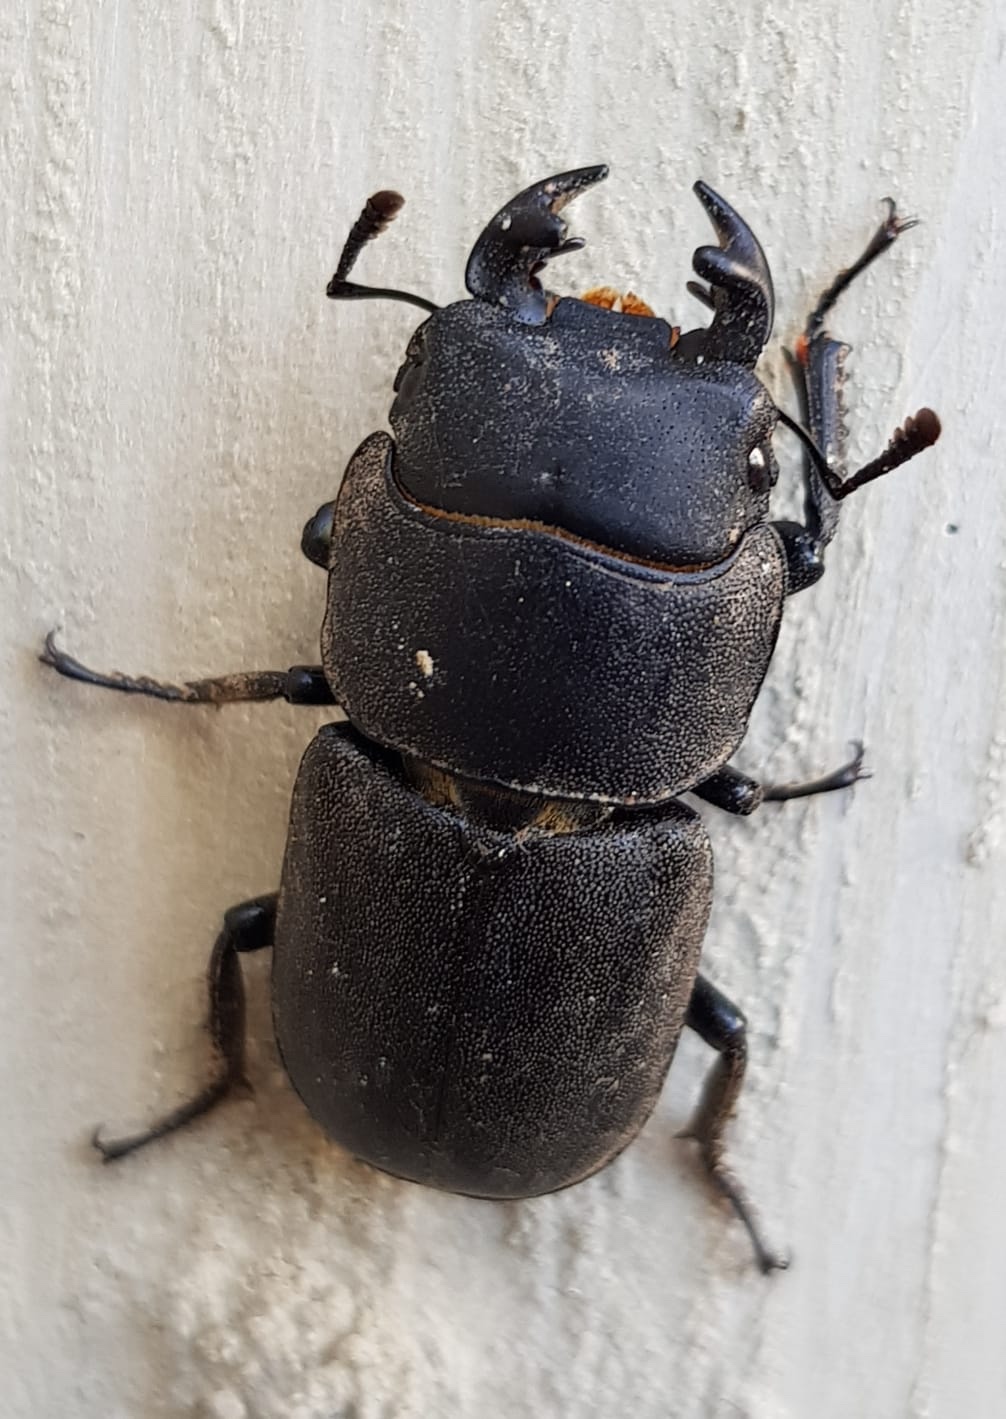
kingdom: Animalia
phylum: Arthropoda
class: Insecta
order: Coleoptera
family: Lucanidae
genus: Dorcus
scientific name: Dorcus parallelipipedus
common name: Lesser stag beetle
